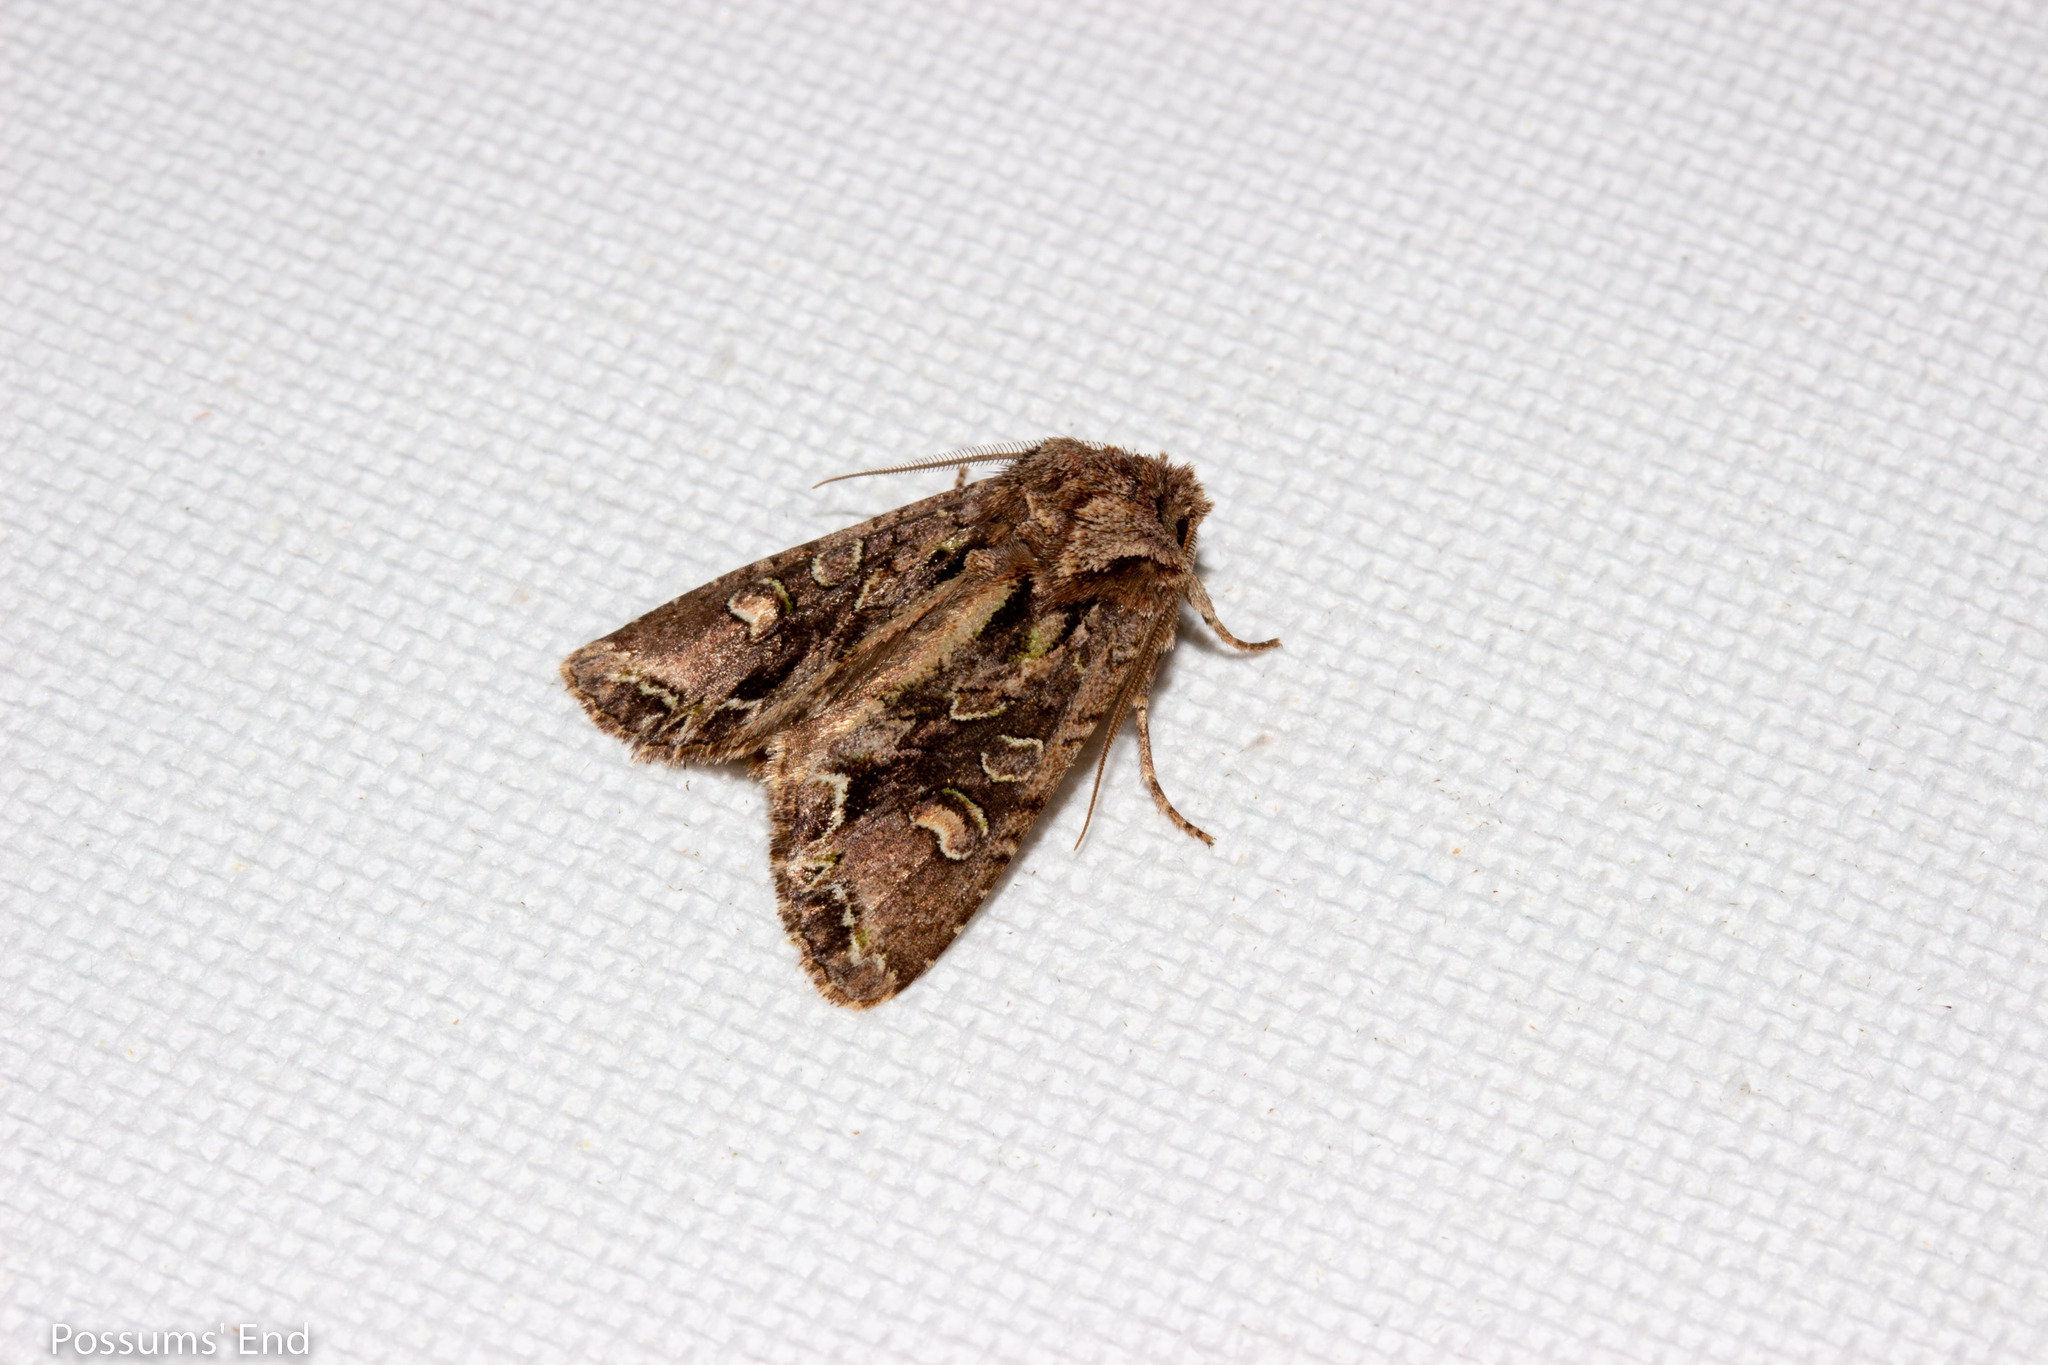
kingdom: Animalia
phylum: Arthropoda
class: Insecta
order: Lepidoptera
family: Noctuidae
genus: Ichneutica
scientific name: Ichneutica insignis
